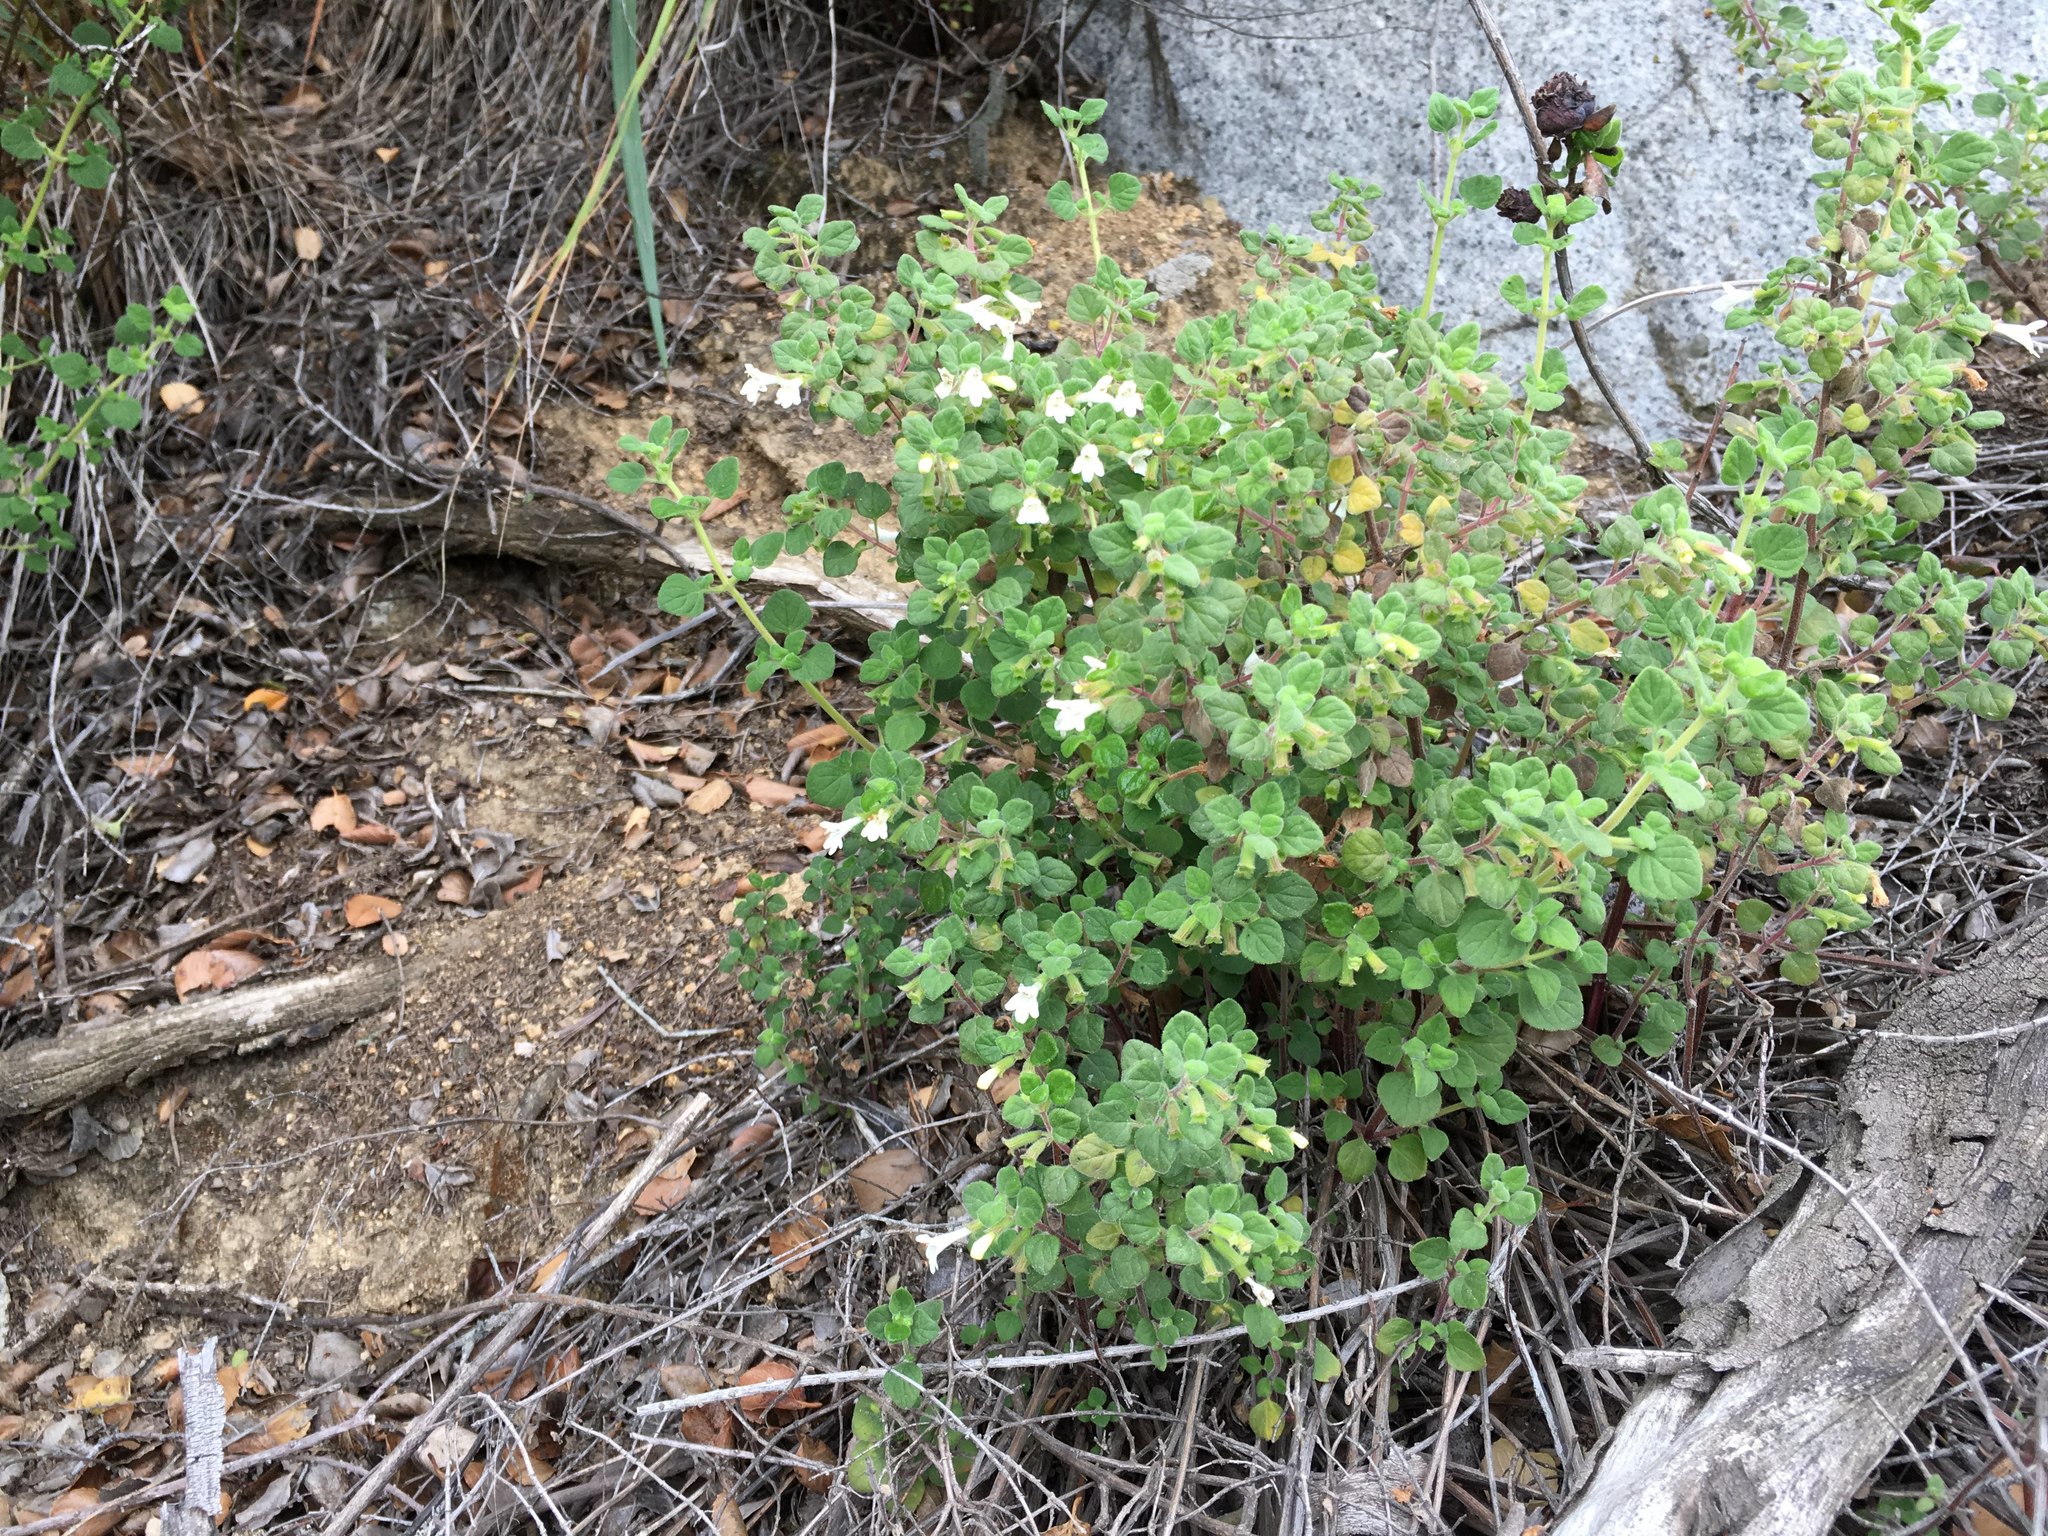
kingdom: Plantae
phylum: Tracheophyta
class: Magnoliopsida
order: Lamiales
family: Lamiaceae
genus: Clinopodium
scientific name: Clinopodium chandleri
